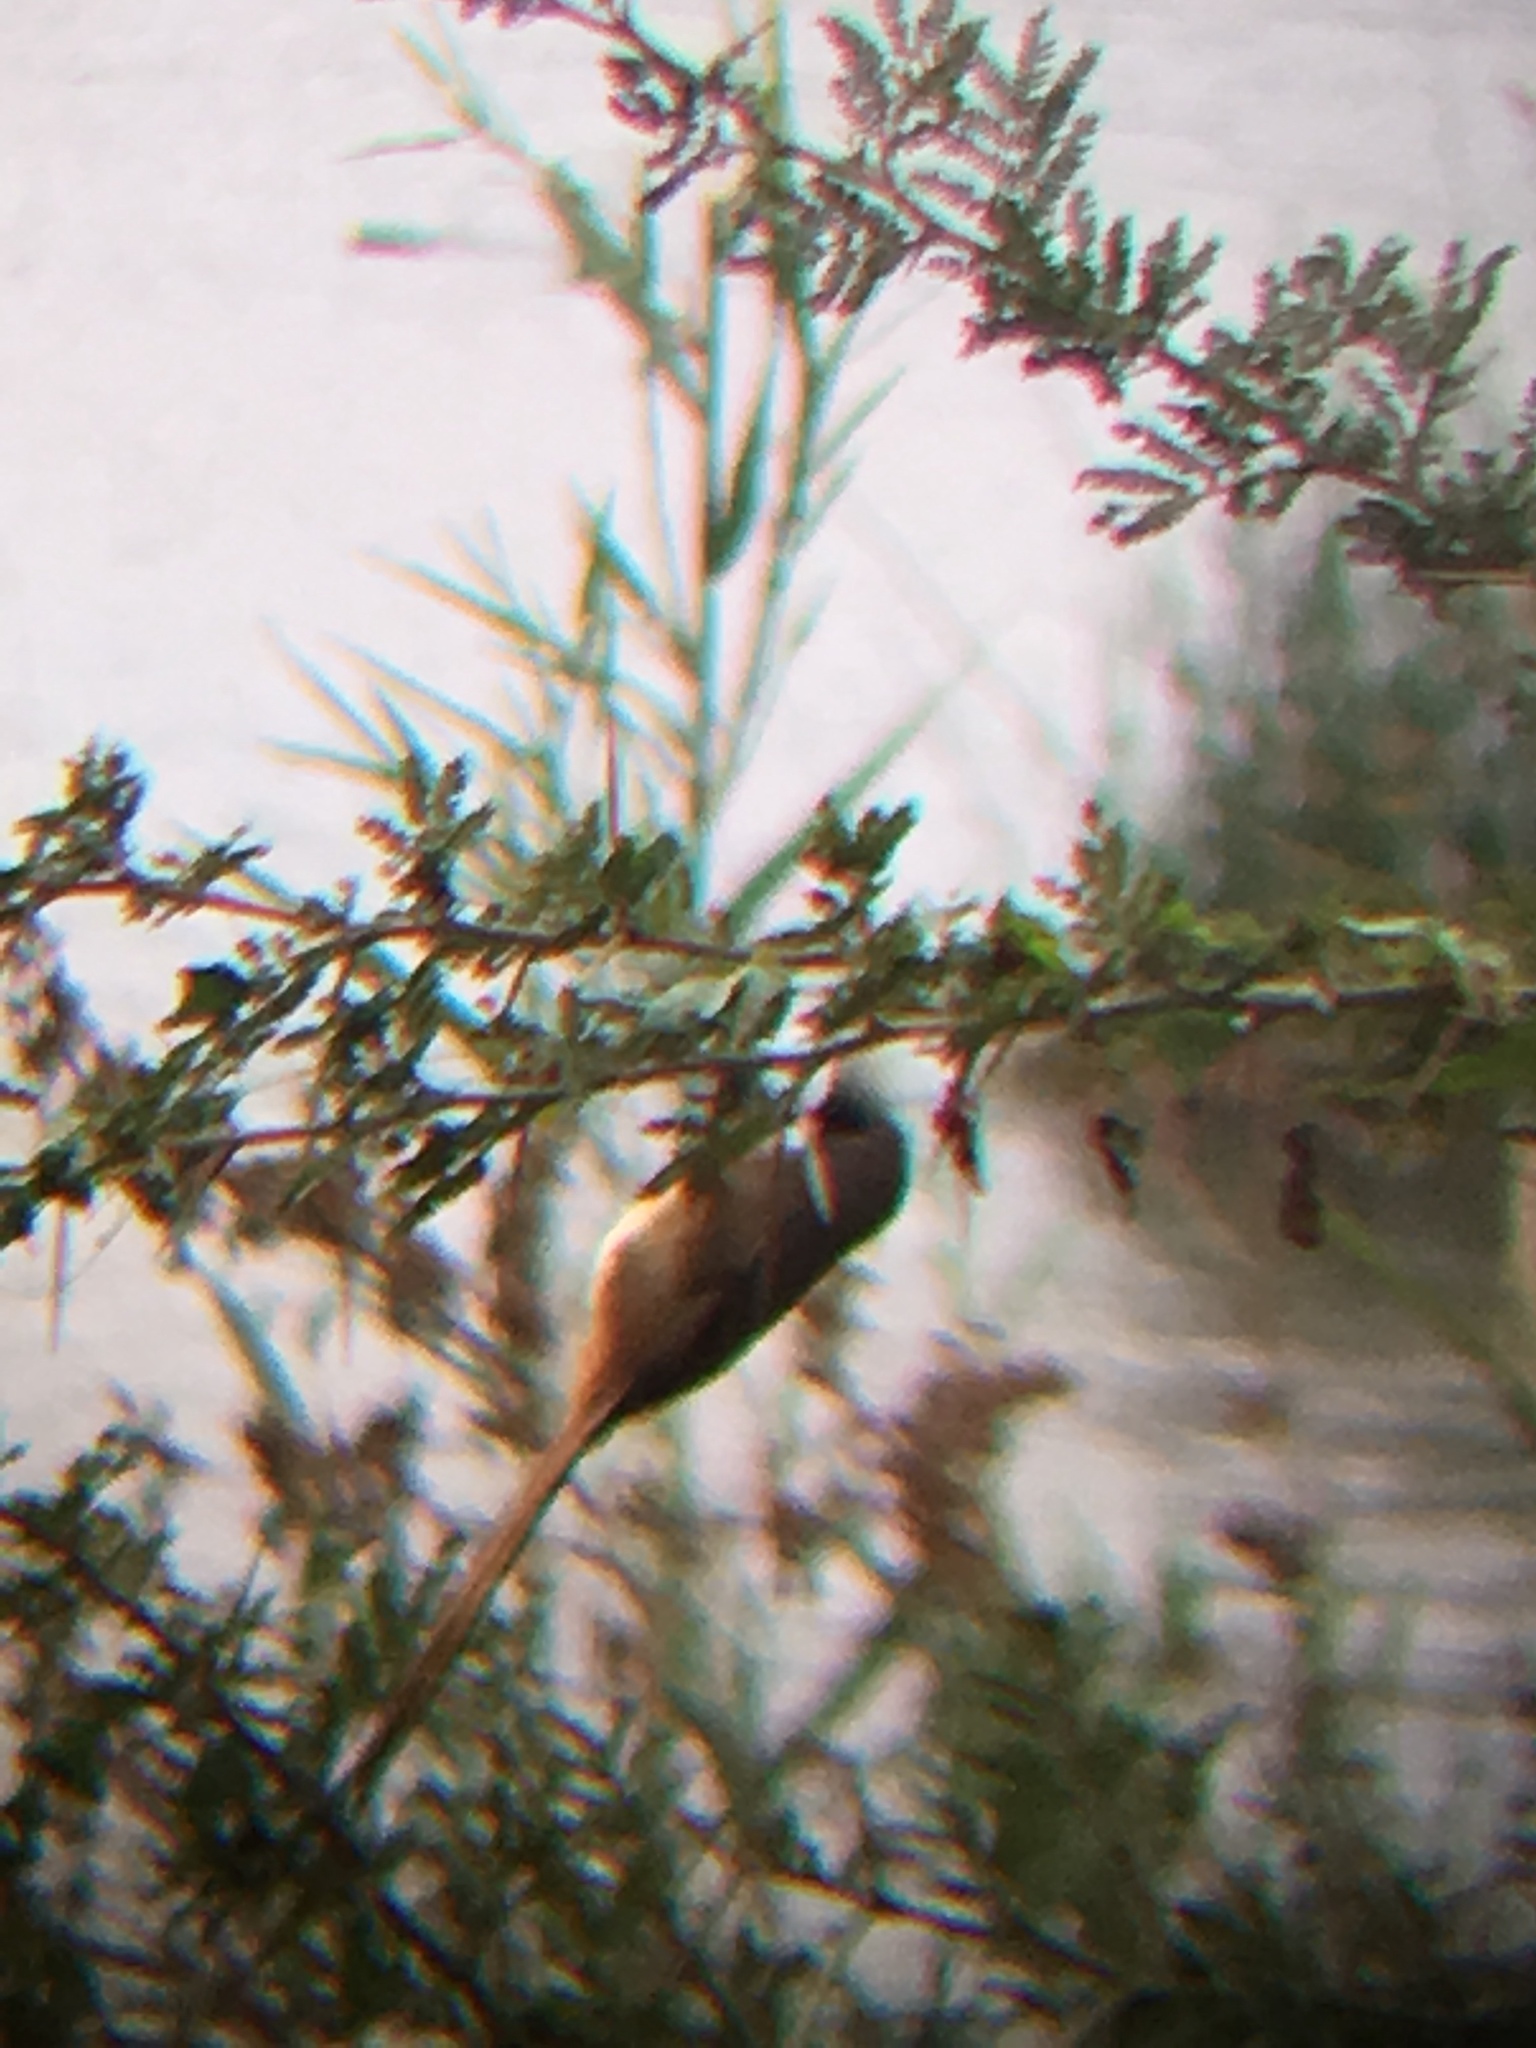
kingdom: Animalia
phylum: Chordata
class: Aves
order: Coliiformes
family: Coliidae
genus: Colius
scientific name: Colius striatus
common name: Speckled mousebird
